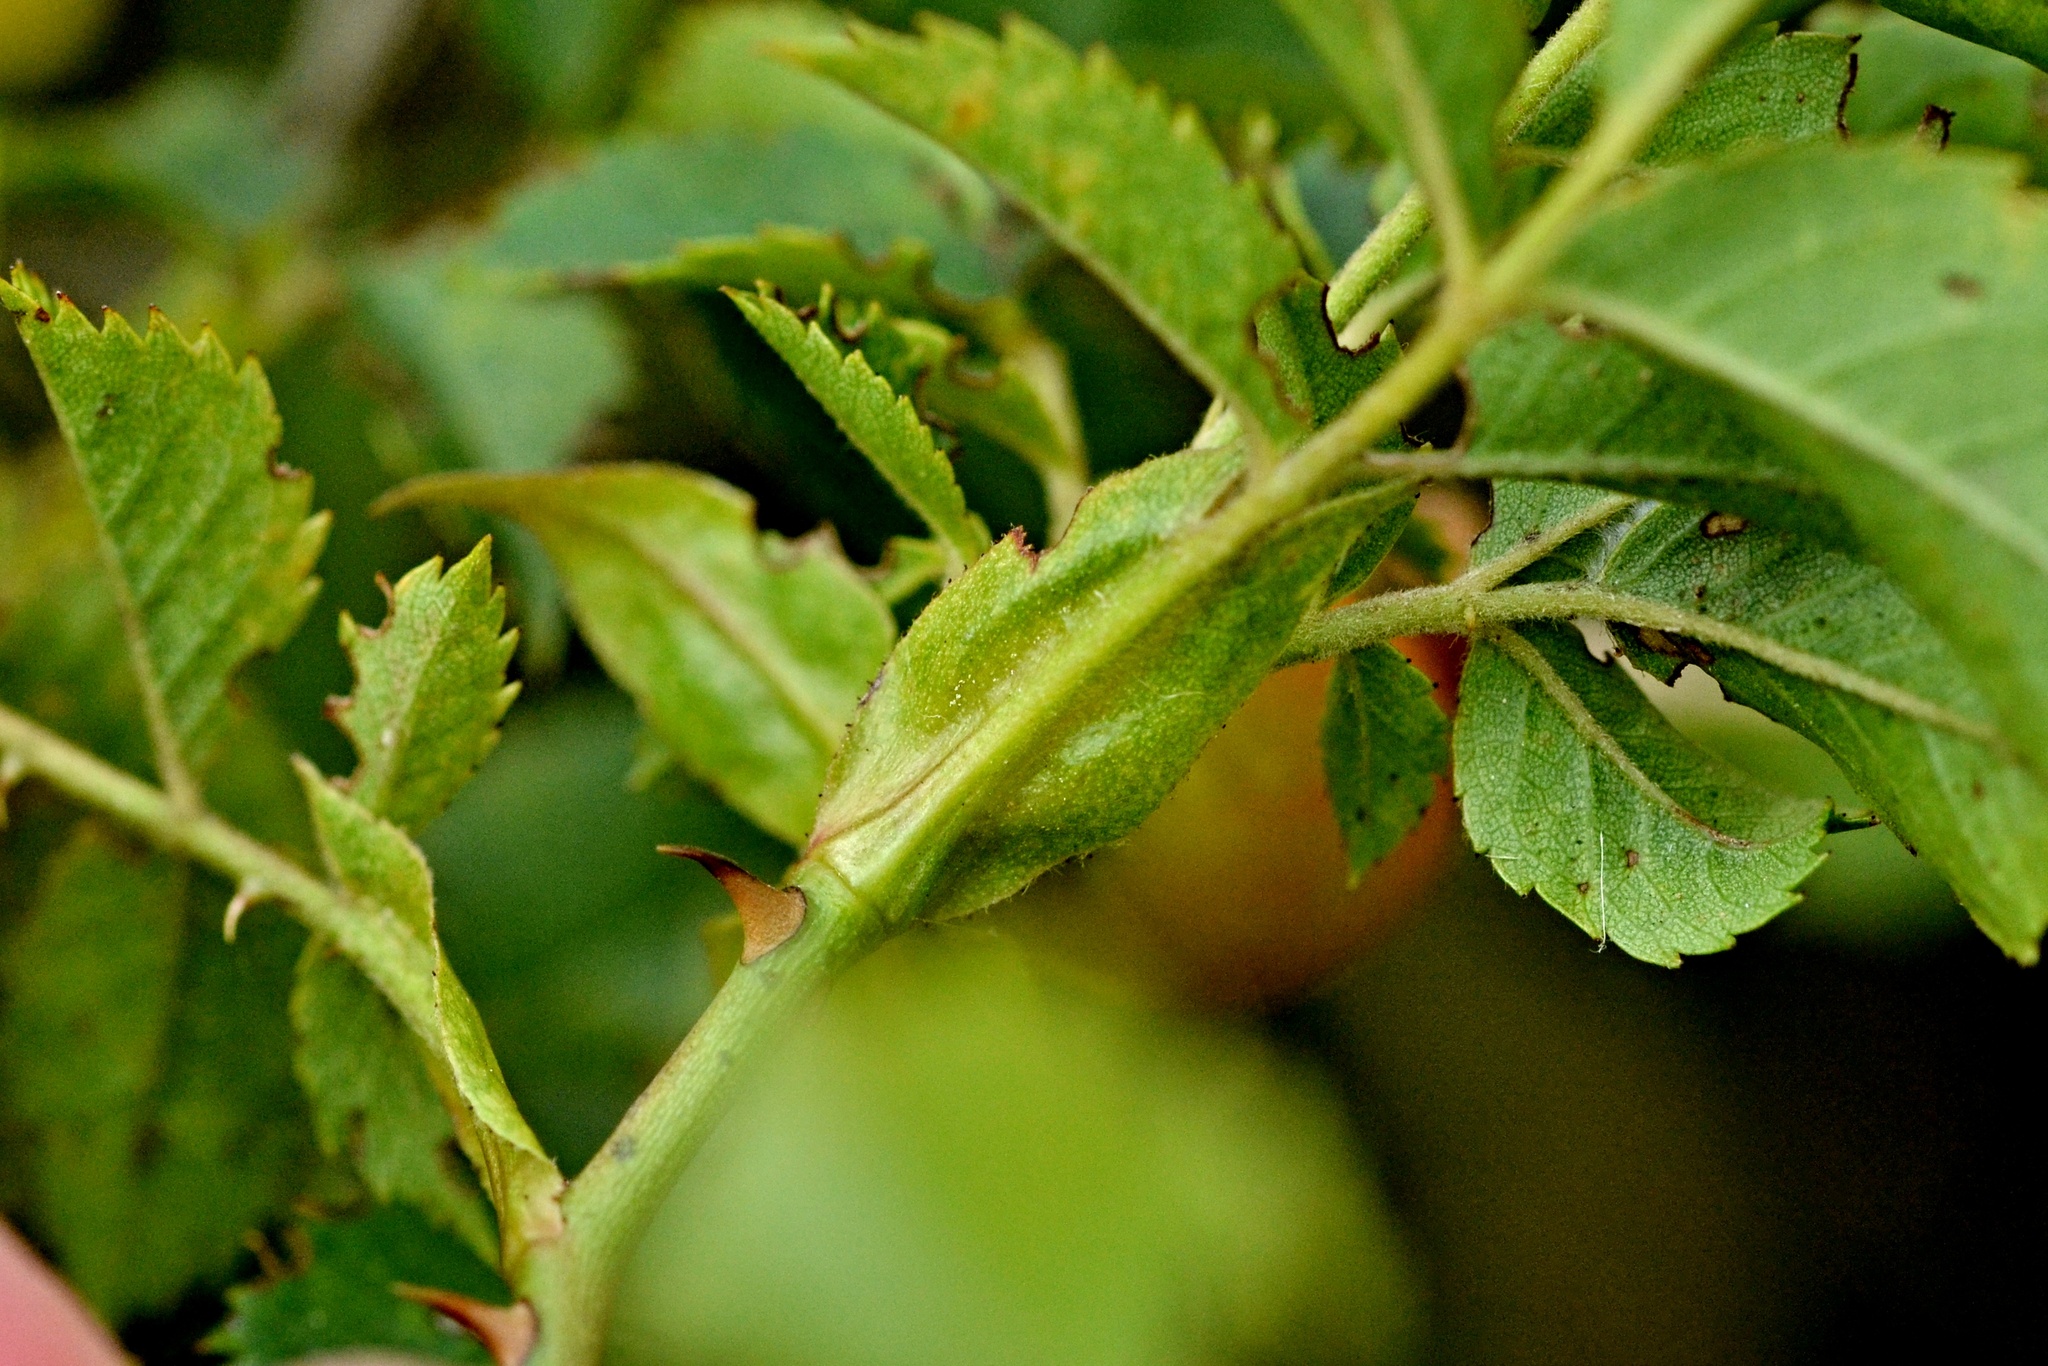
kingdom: Plantae
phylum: Tracheophyta
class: Magnoliopsida
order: Rosales
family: Rosaceae
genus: Rosa
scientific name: Rosa corymbifera
